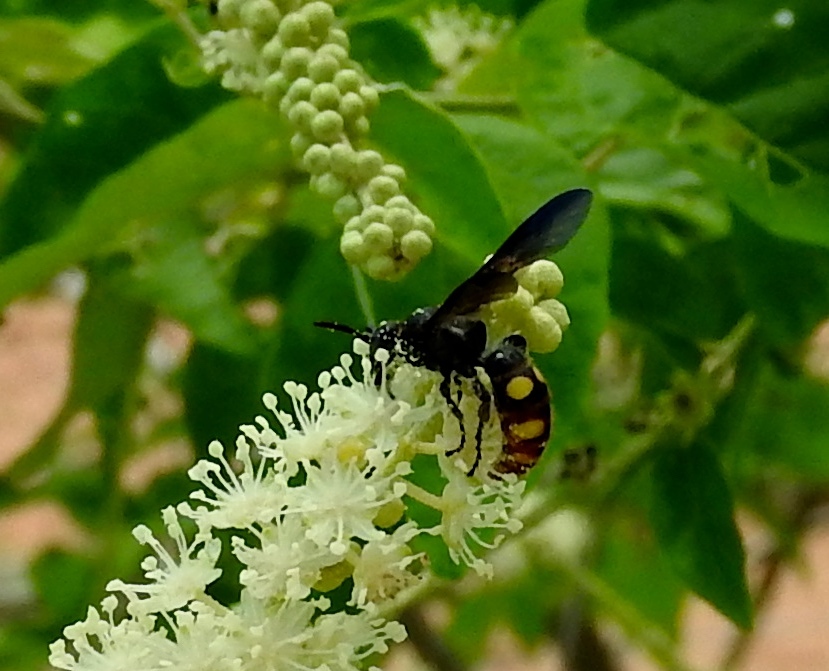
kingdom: Animalia
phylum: Arthropoda
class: Insecta
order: Hymenoptera
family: Scoliidae
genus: Scolia
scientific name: Scolia nobilitata
